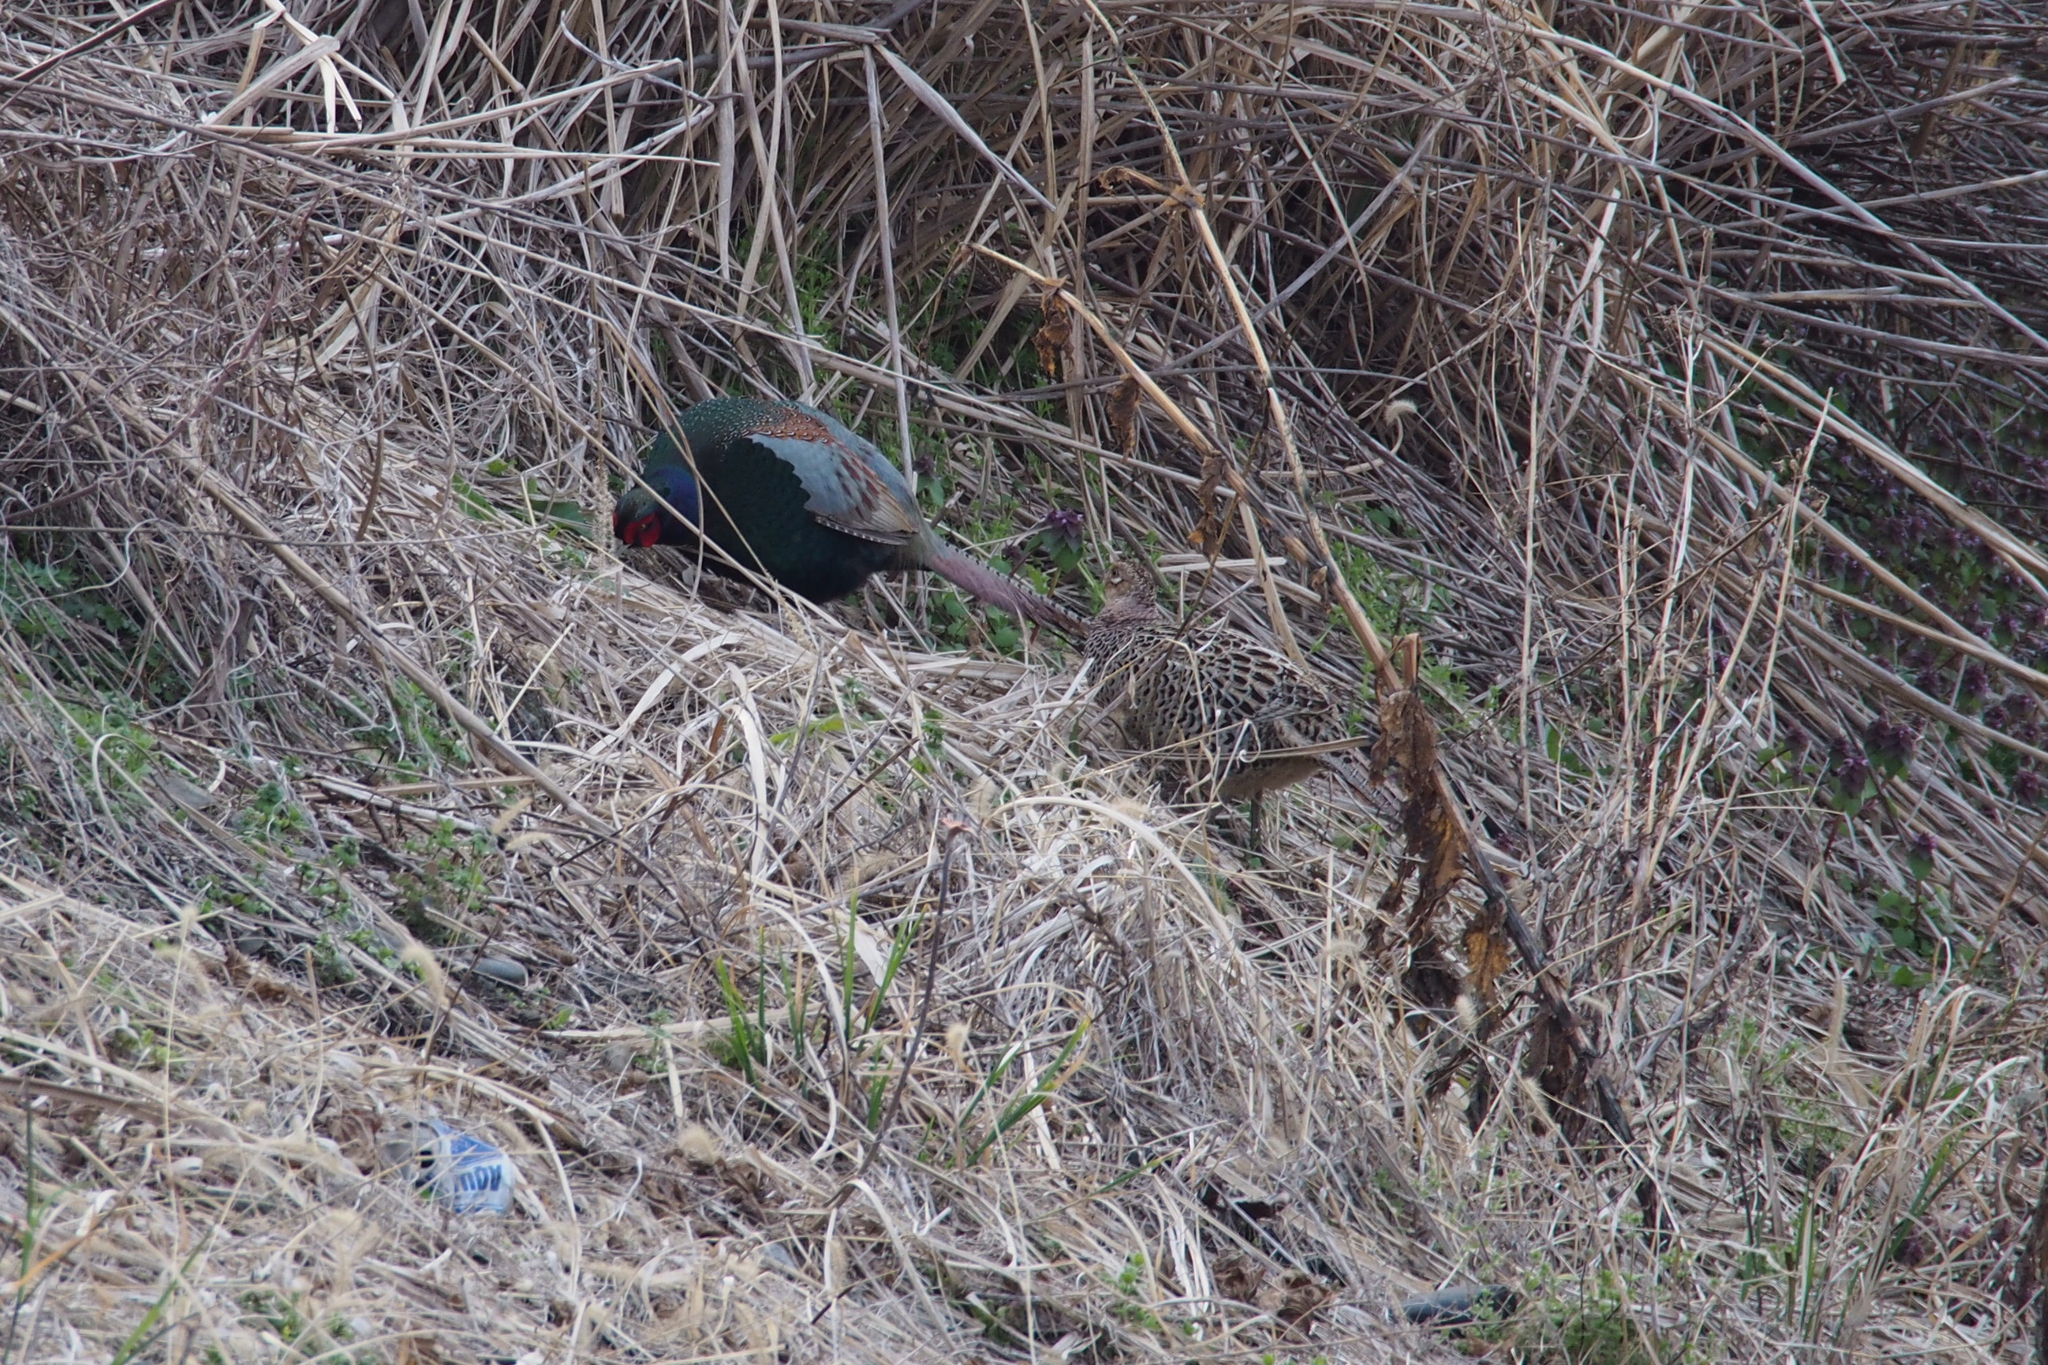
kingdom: Animalia
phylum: Chordata
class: Aves
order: Galliformes
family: Phasianidae
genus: Phasianus
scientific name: Phasianus versicolor
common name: Green pheasant
